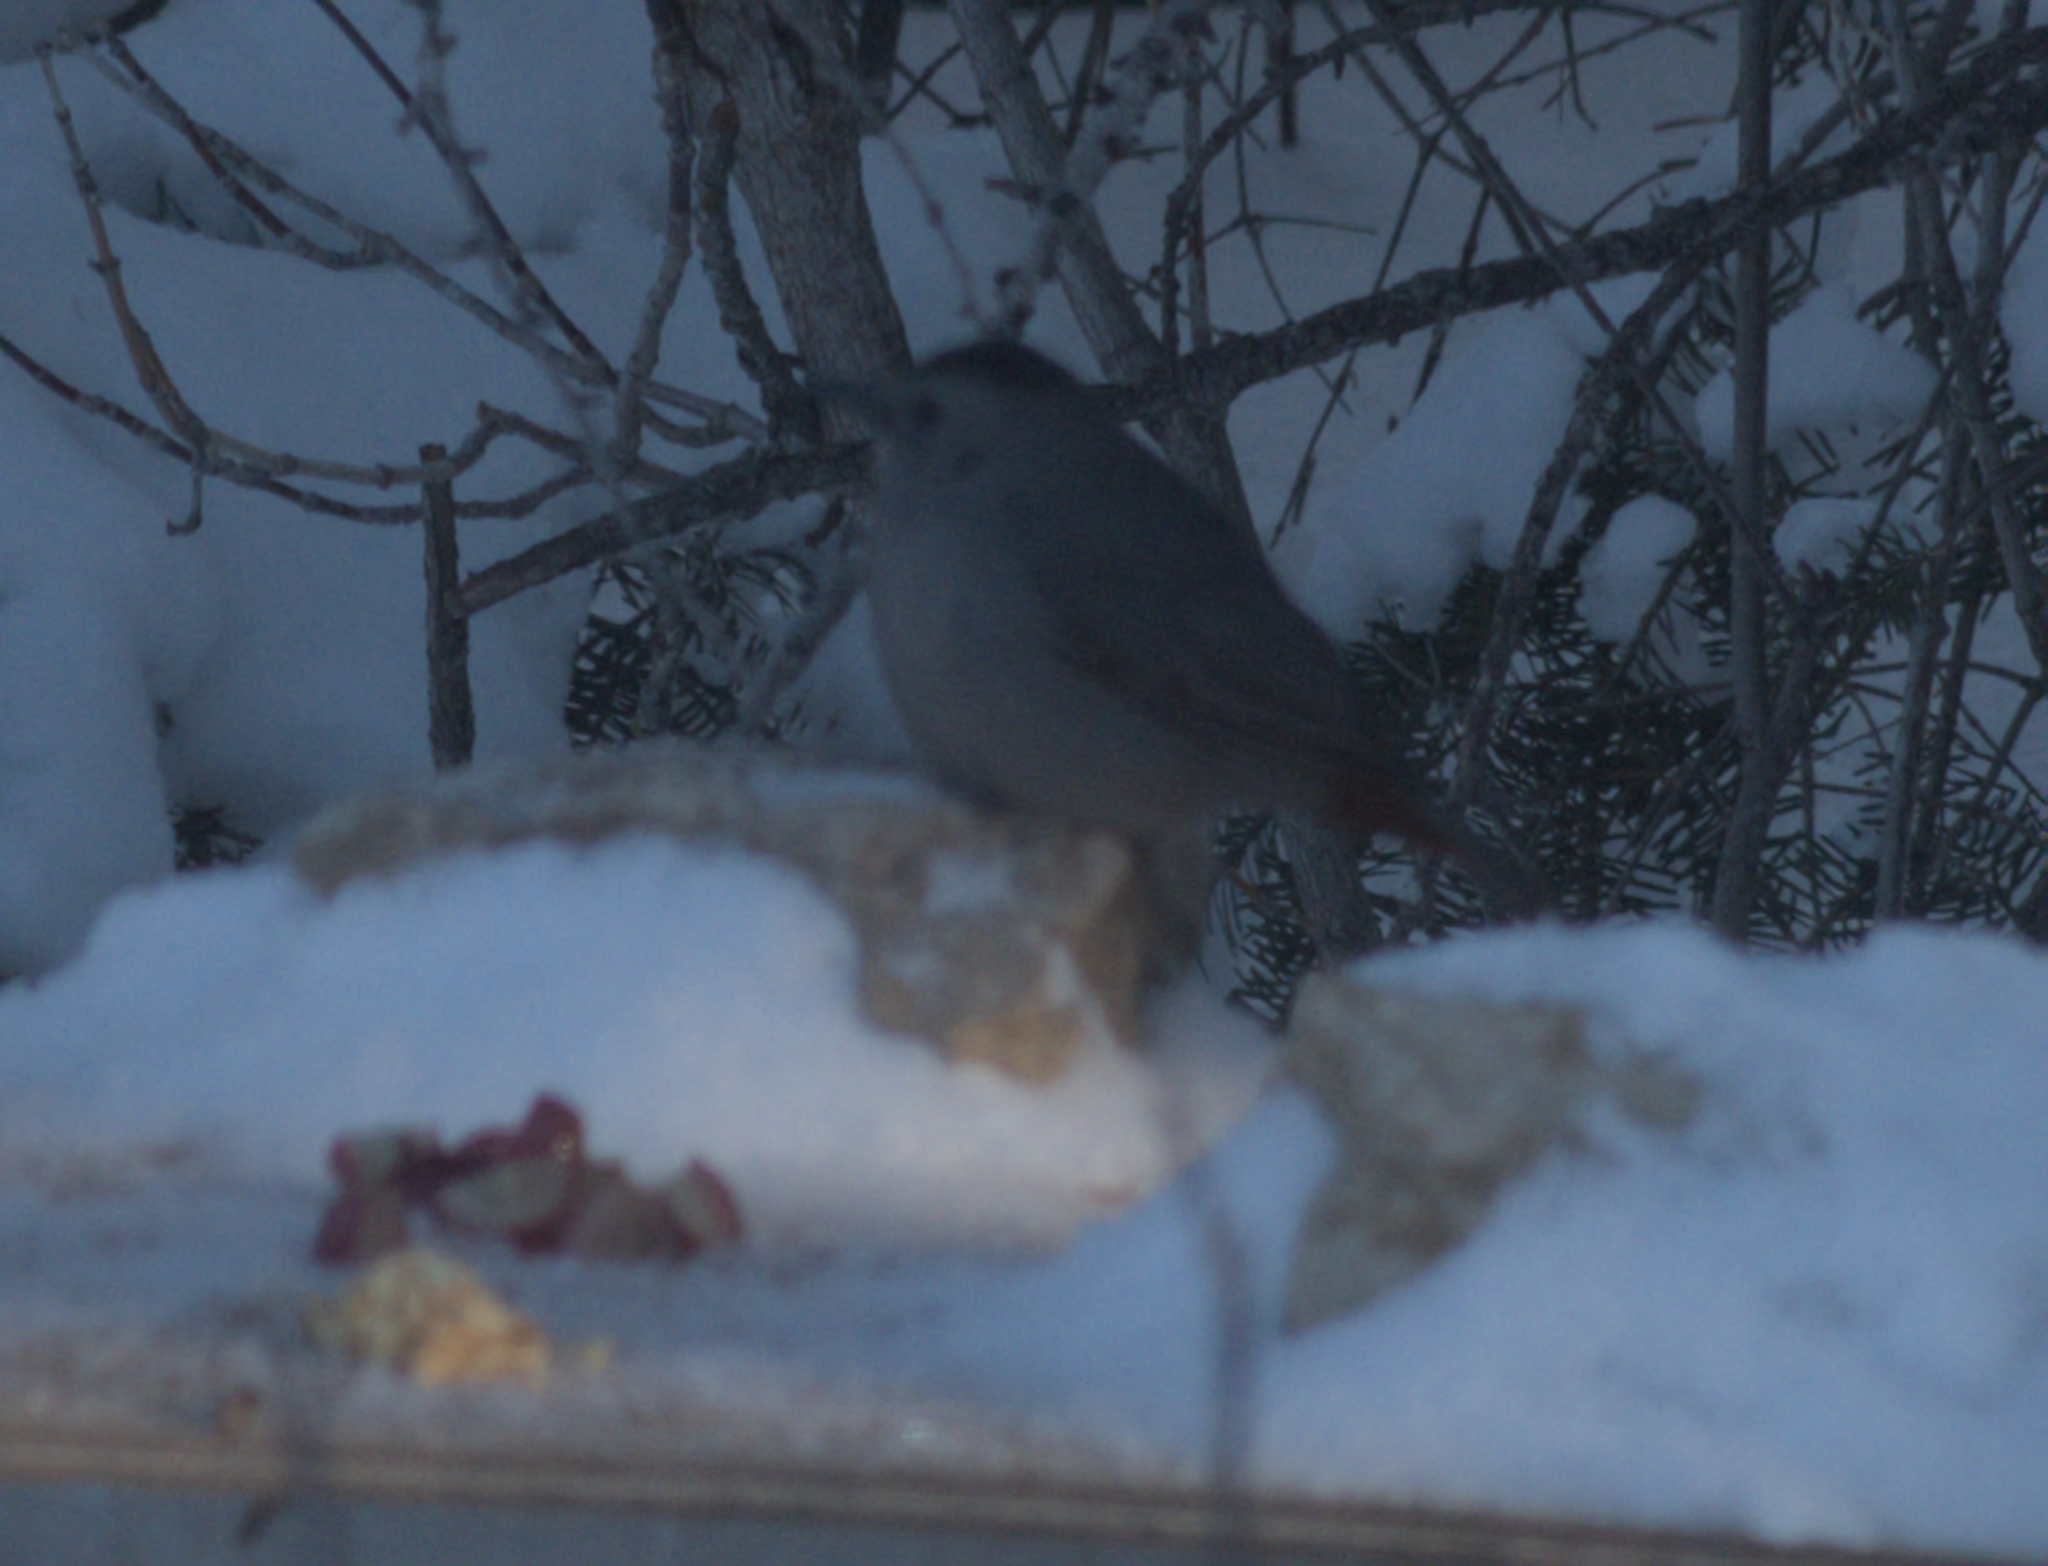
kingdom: Animalia
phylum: Chordata
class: Aves
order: Passeriformes
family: Mimidae
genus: Dumetella
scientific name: Dumetella carolinensis
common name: Gray catbird
